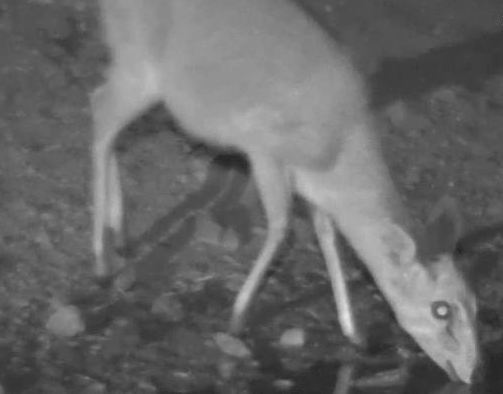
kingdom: Animalia
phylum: Chordata
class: Mammalia
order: Artiodactyla
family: Bovidae
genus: Sylvicapra
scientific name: Sylvicapra grimmia
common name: Bush duiker
